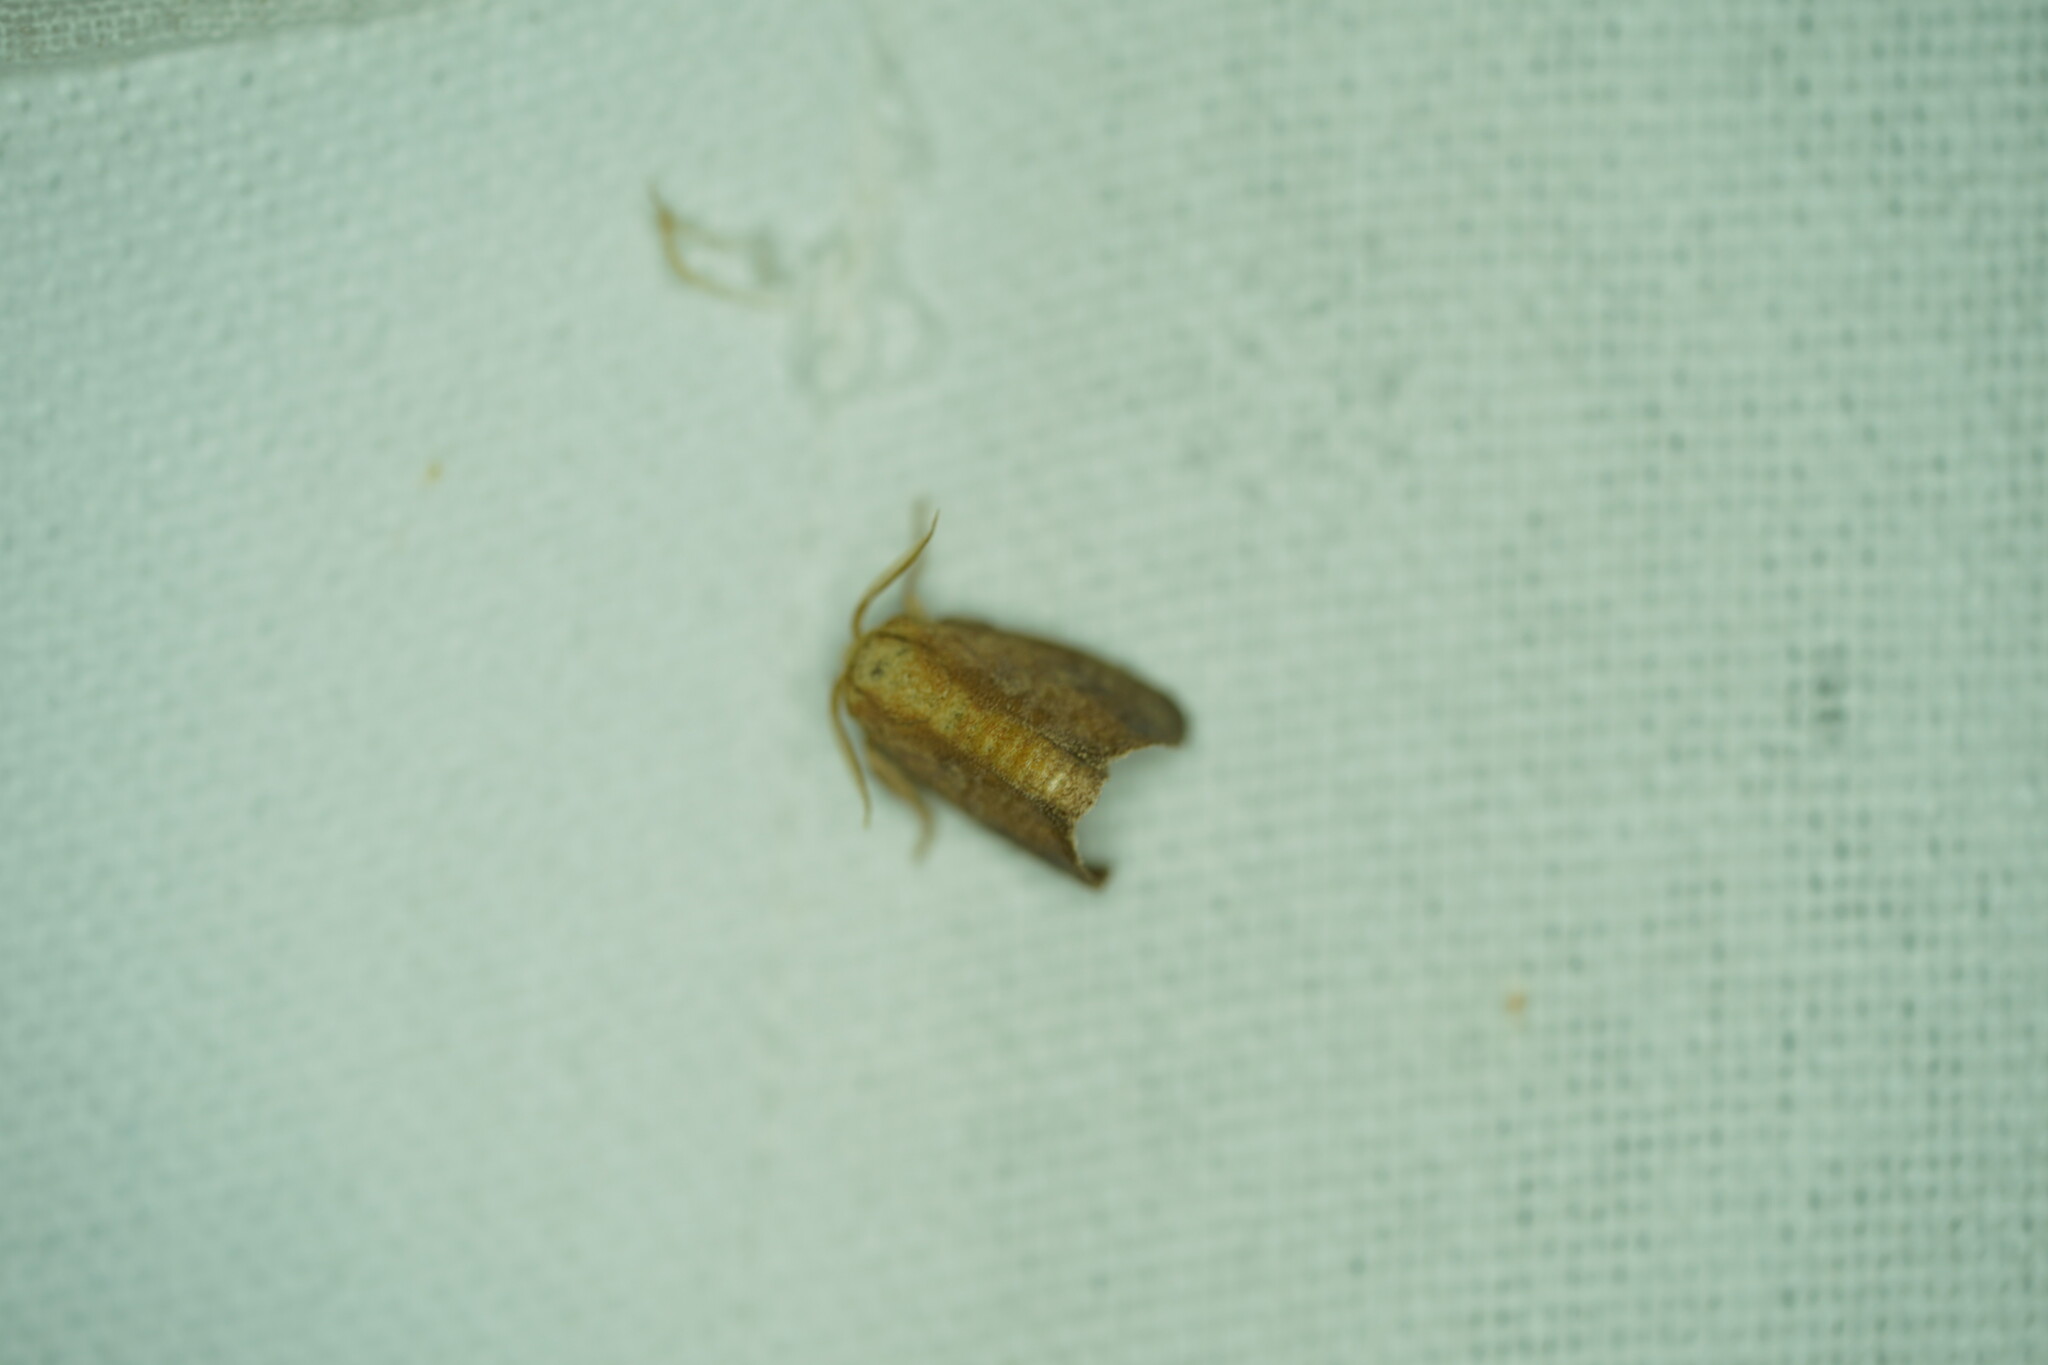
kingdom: Animalia
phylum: Arthropoda
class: Insecta
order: Lepidoptera
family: Limacodidae
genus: Isa
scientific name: Isa textula
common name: Crowned slug moth
